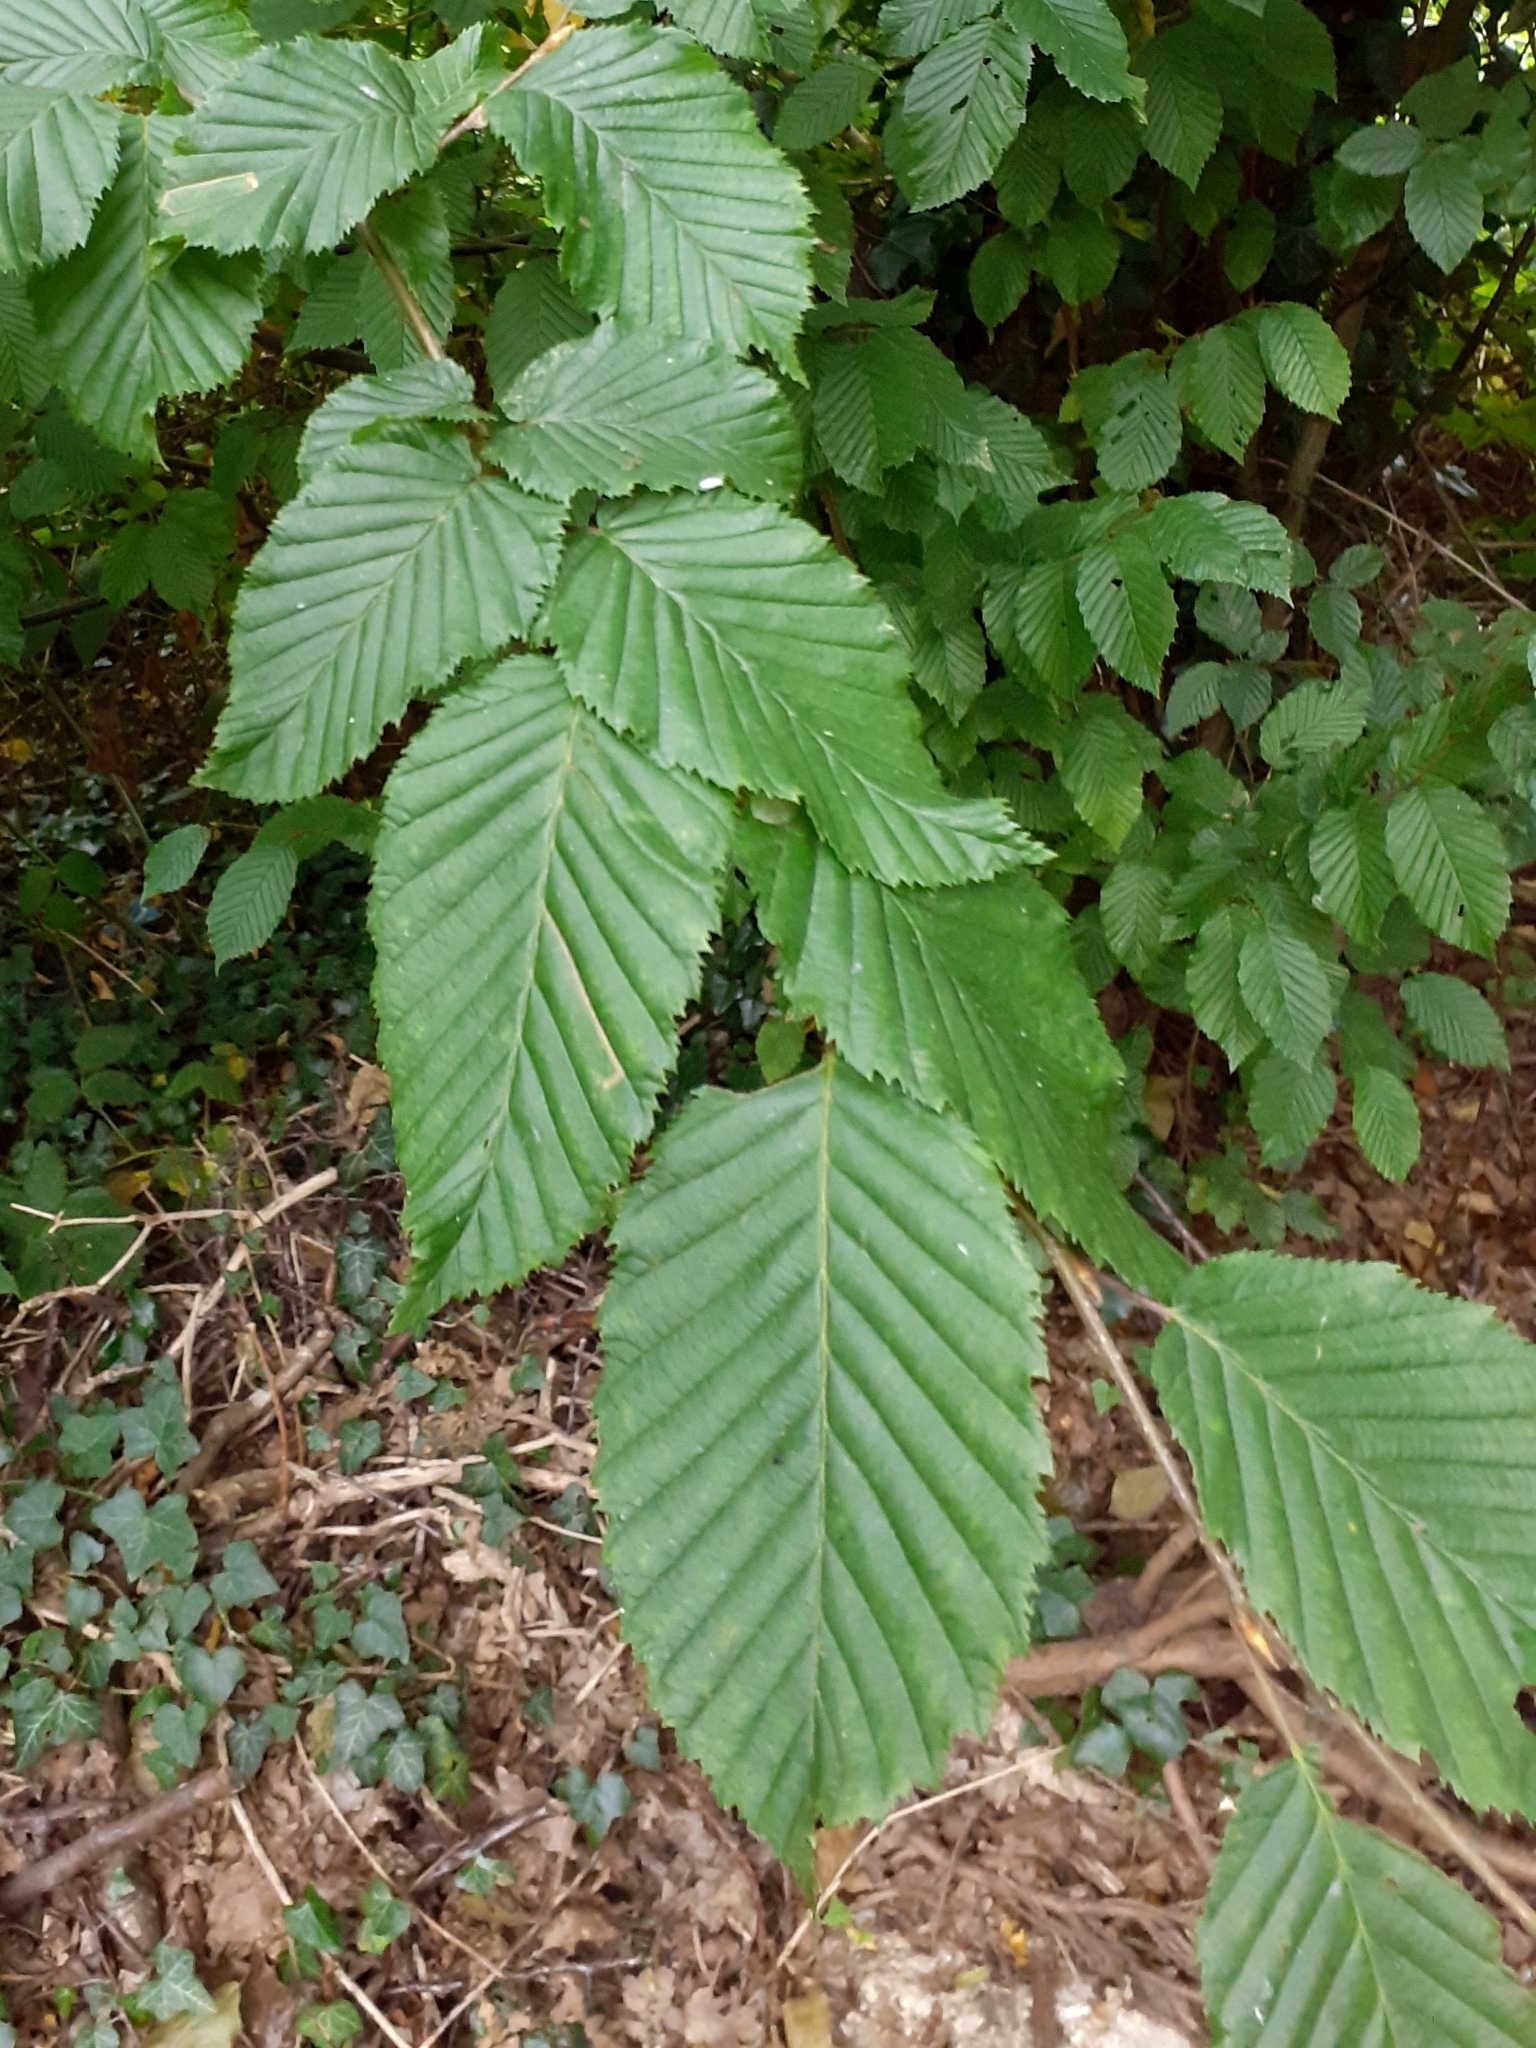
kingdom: Plantae
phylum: Tracheophyta
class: Magnoliopsida
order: Fagales
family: Betulaceae
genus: Carpinus
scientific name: Carpinus betulus
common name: Hornbeam
